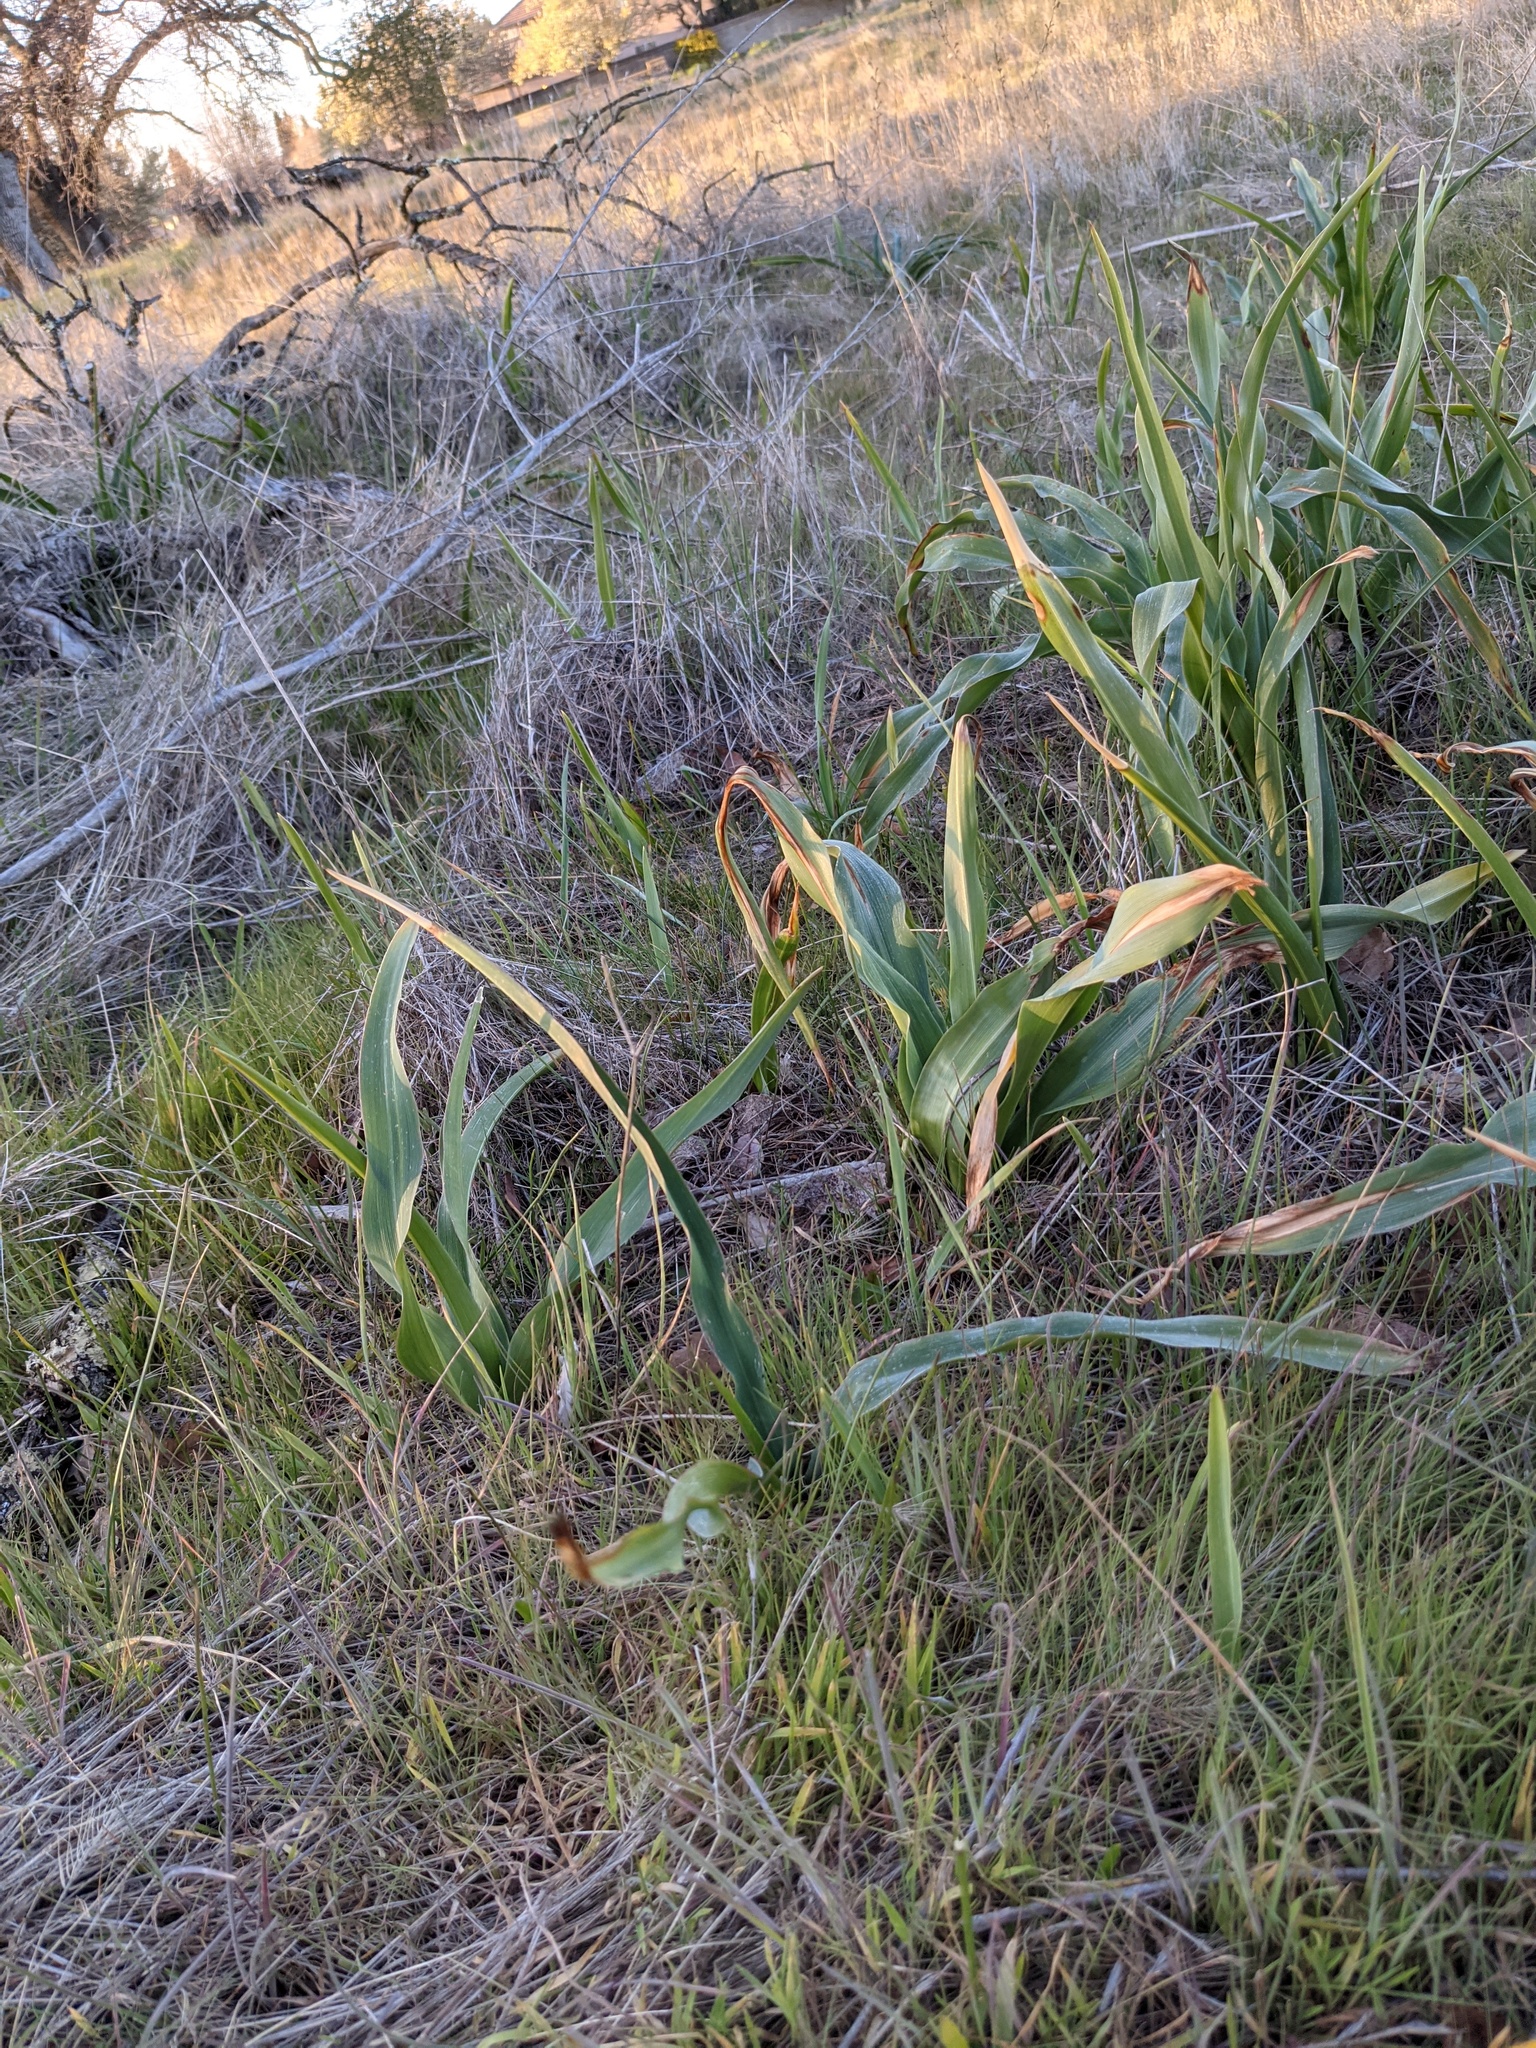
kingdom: Plantae
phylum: Tracheophyta
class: Liliopsida
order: Asparagales
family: Asparagaceae
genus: Chlorogalum
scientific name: Chlorogalum pomeridianum
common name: Amole
